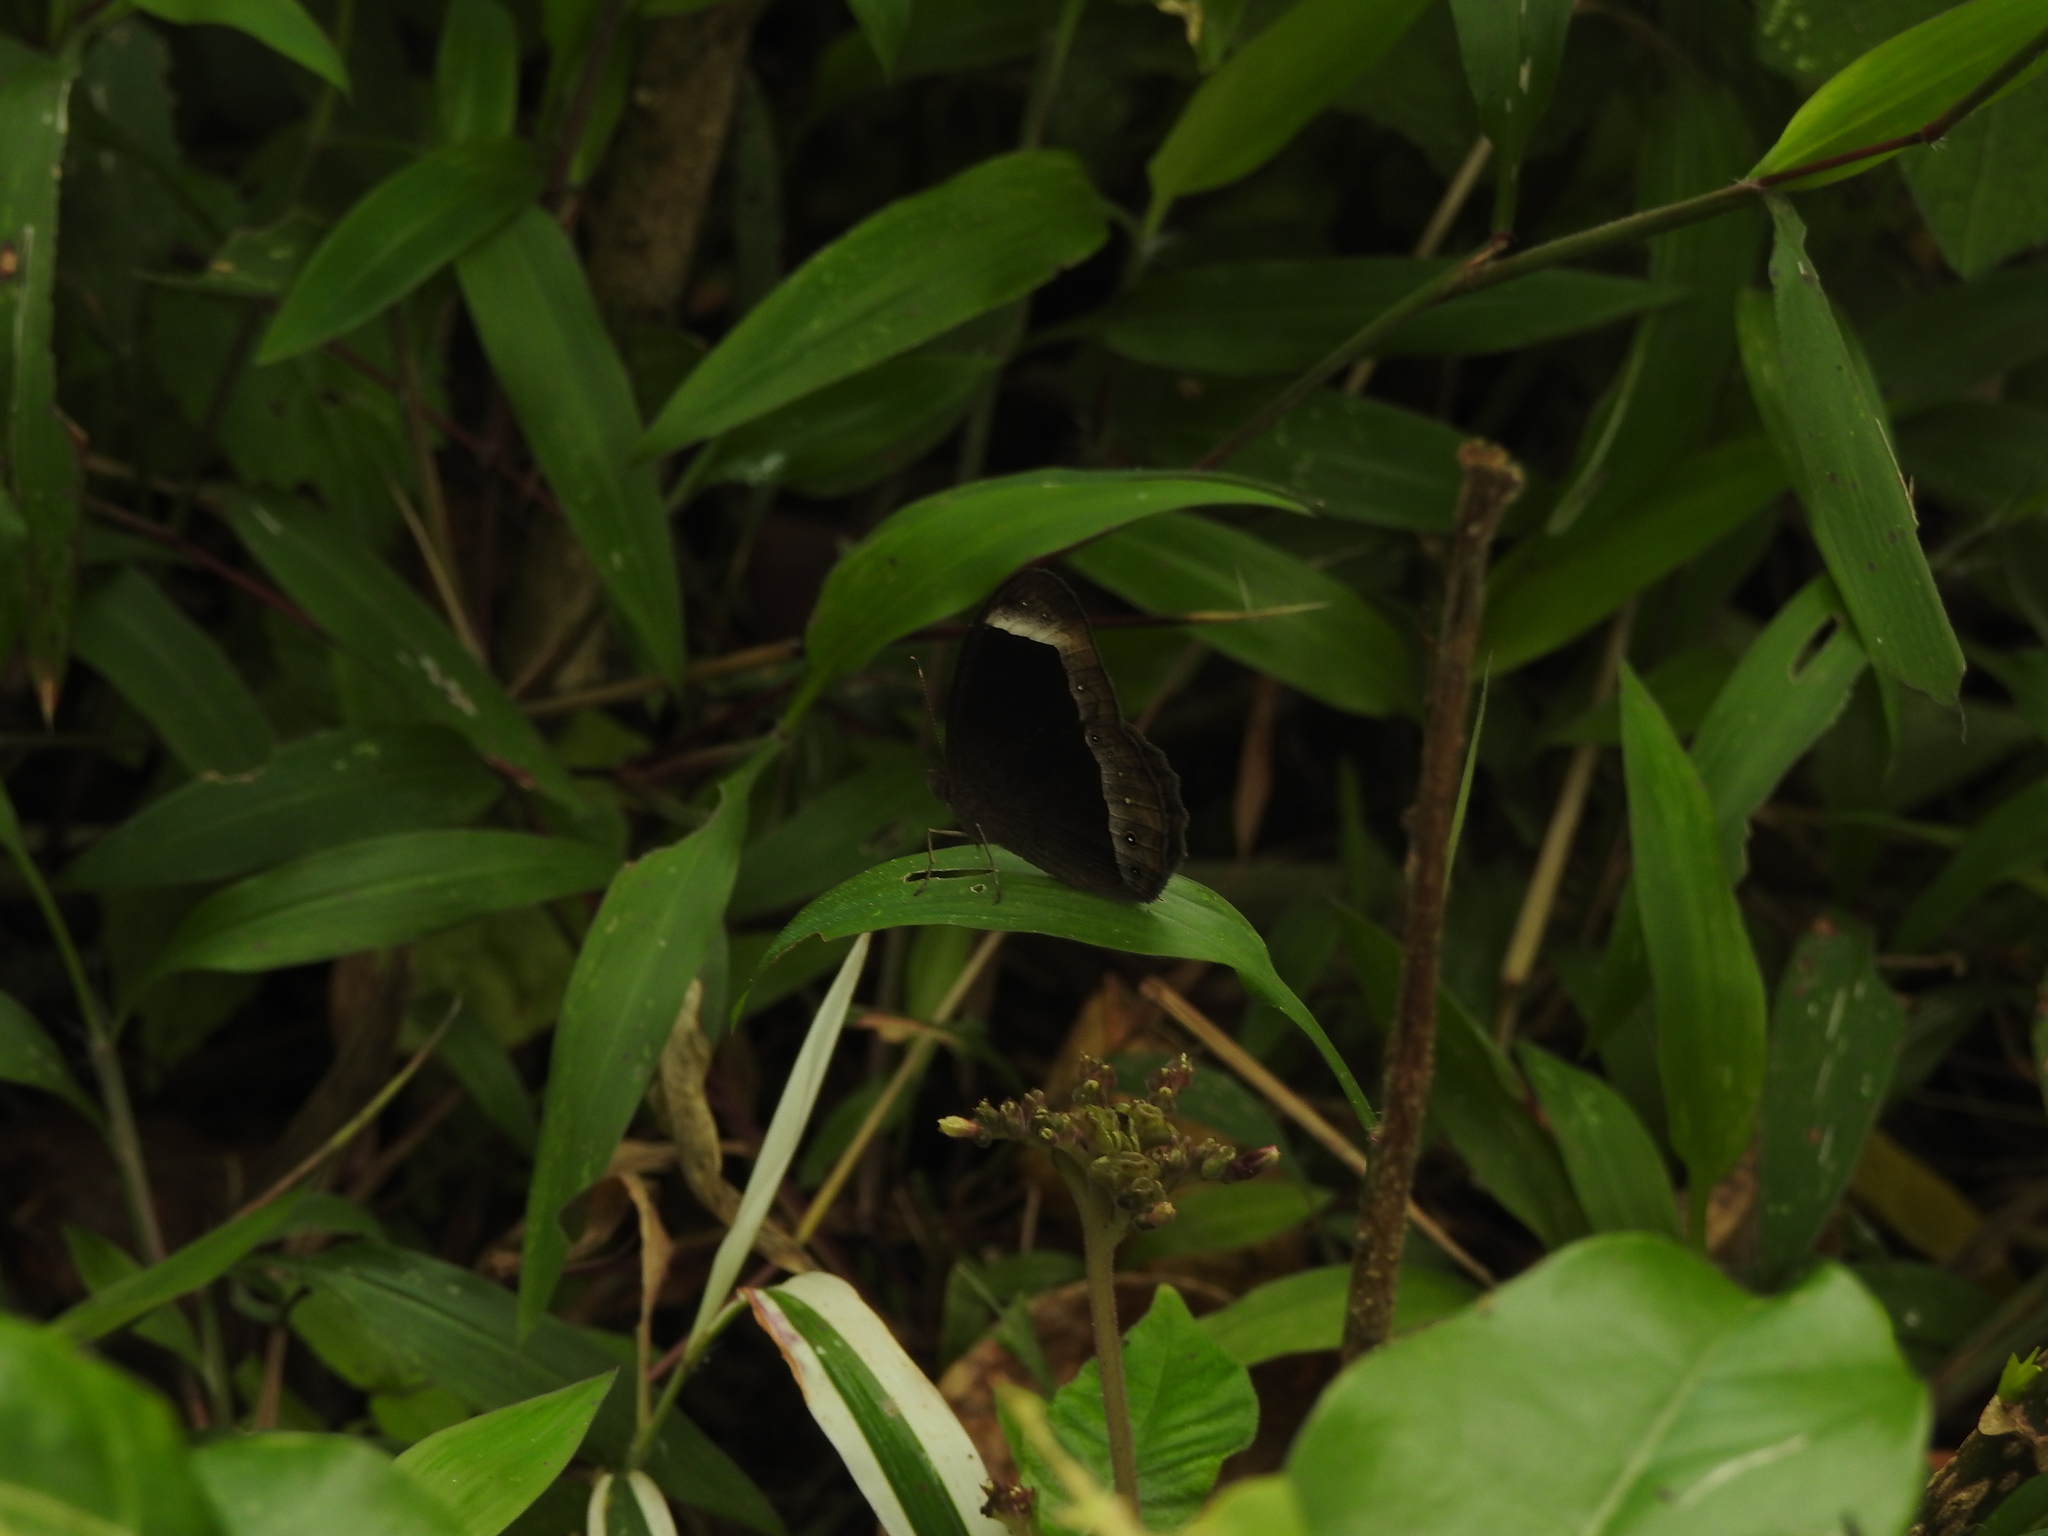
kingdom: Animalia
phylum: Arthropoda
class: Insecta
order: Lepidoptera
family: Nymphalidae
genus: Mycalesis
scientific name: Mycalesis anaxias
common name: White-bar bushbrown
